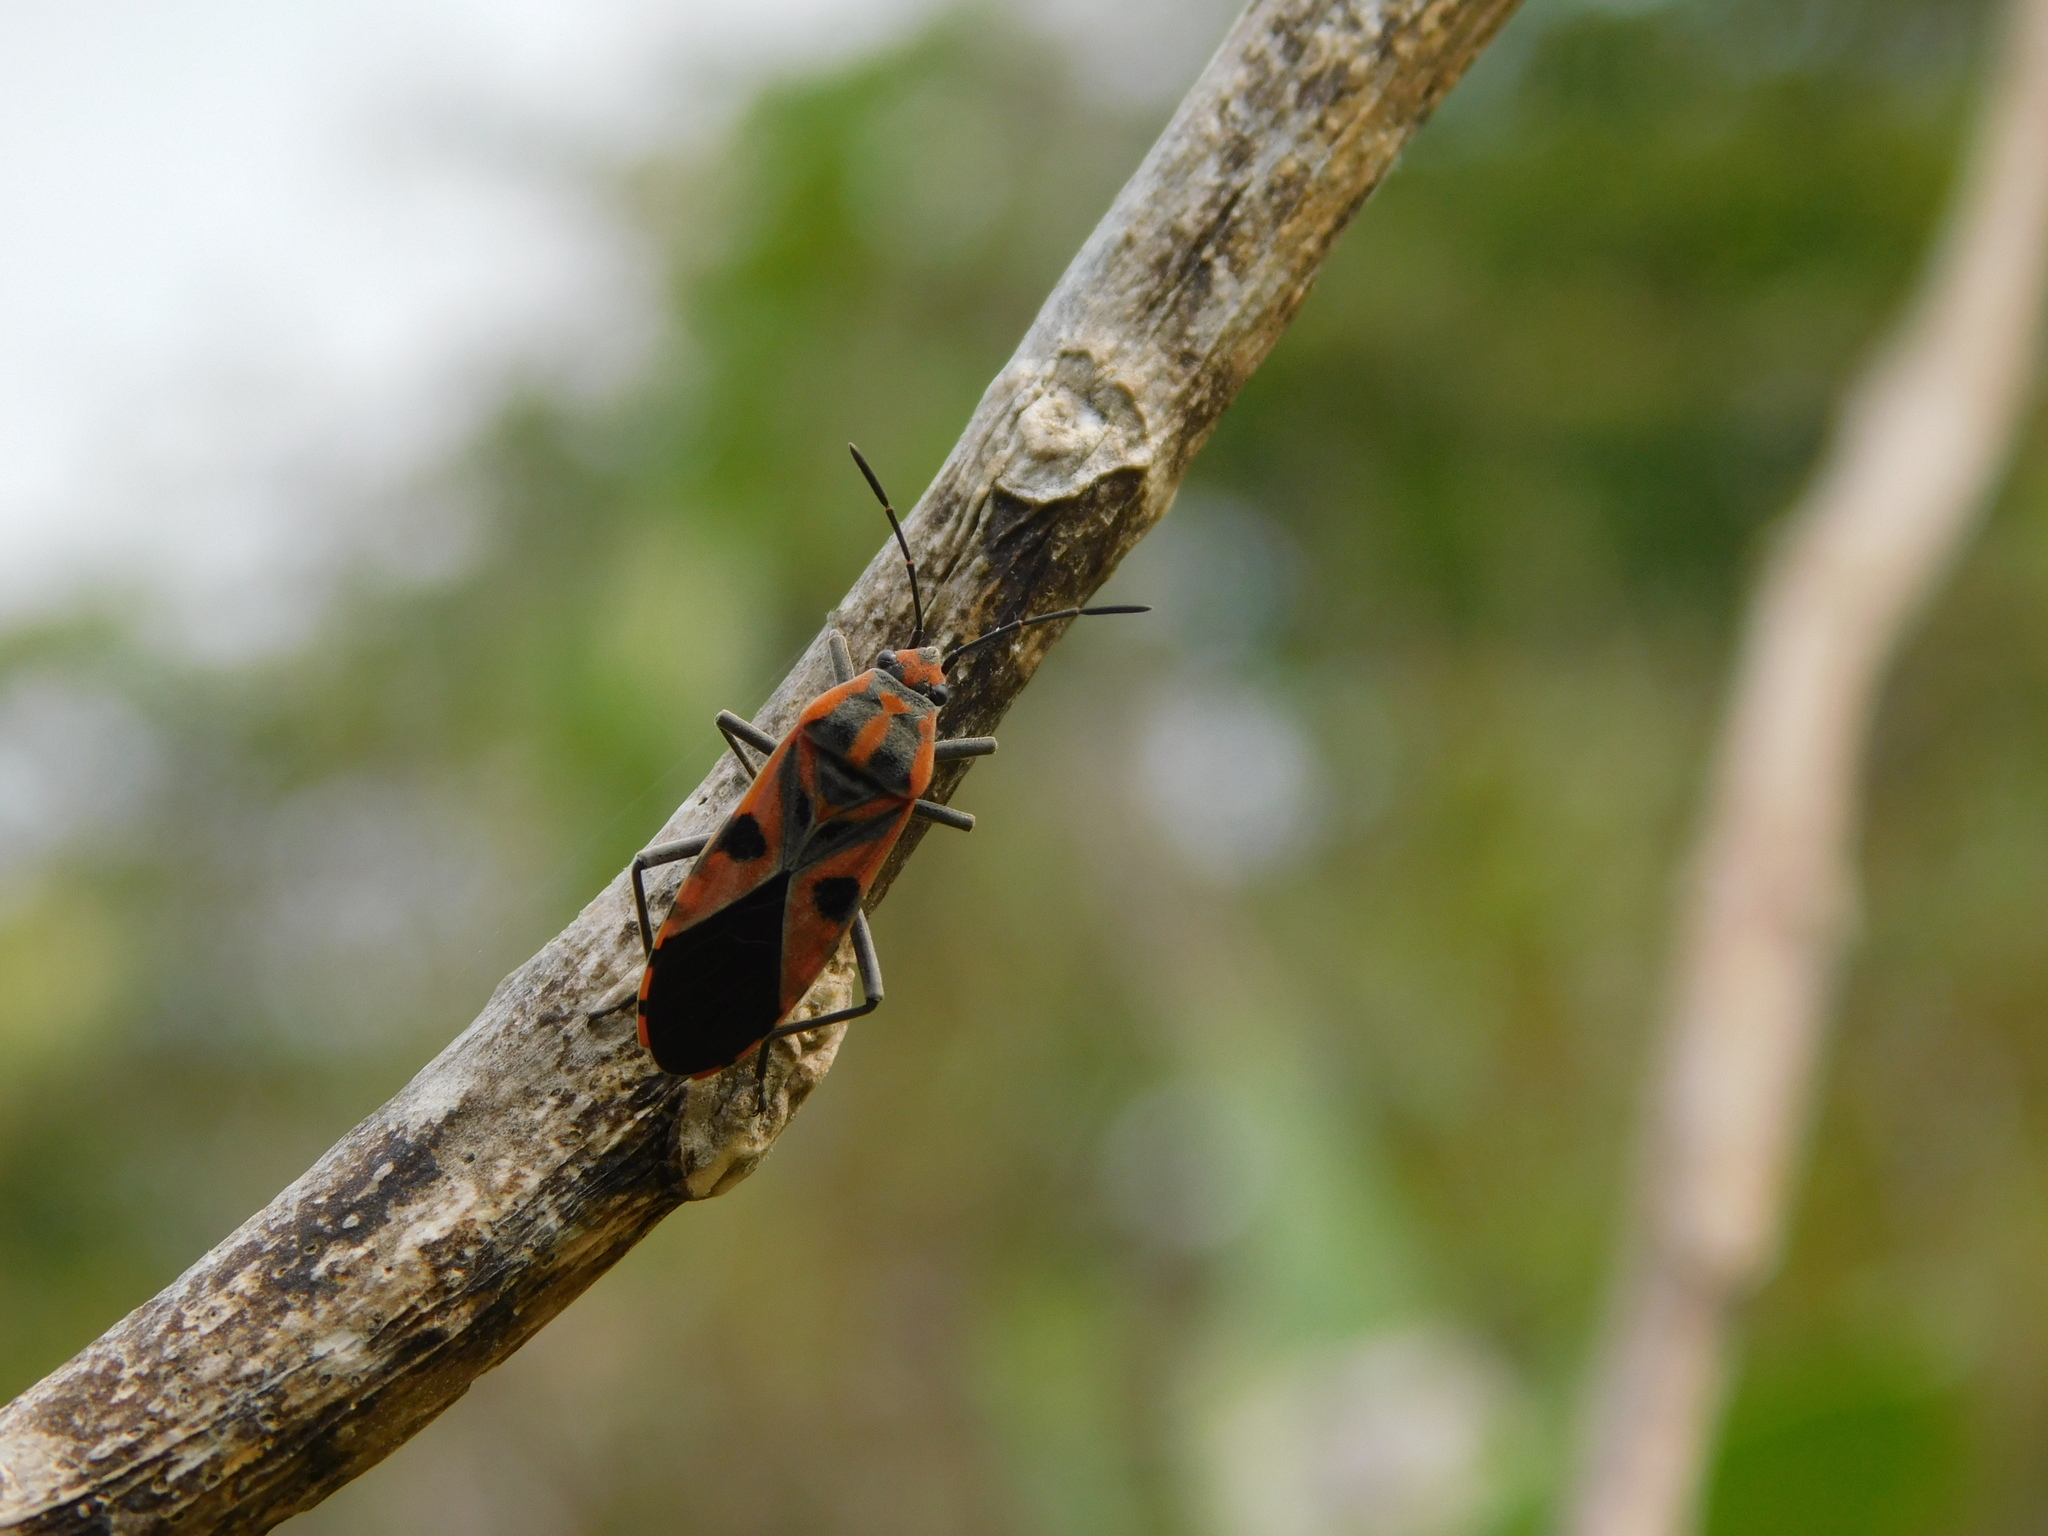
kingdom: Animalia
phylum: Arthropoda
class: Insecta
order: Hemiptera
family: Lygaeidae
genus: Spilostethus
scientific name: Spilostethus hospes
